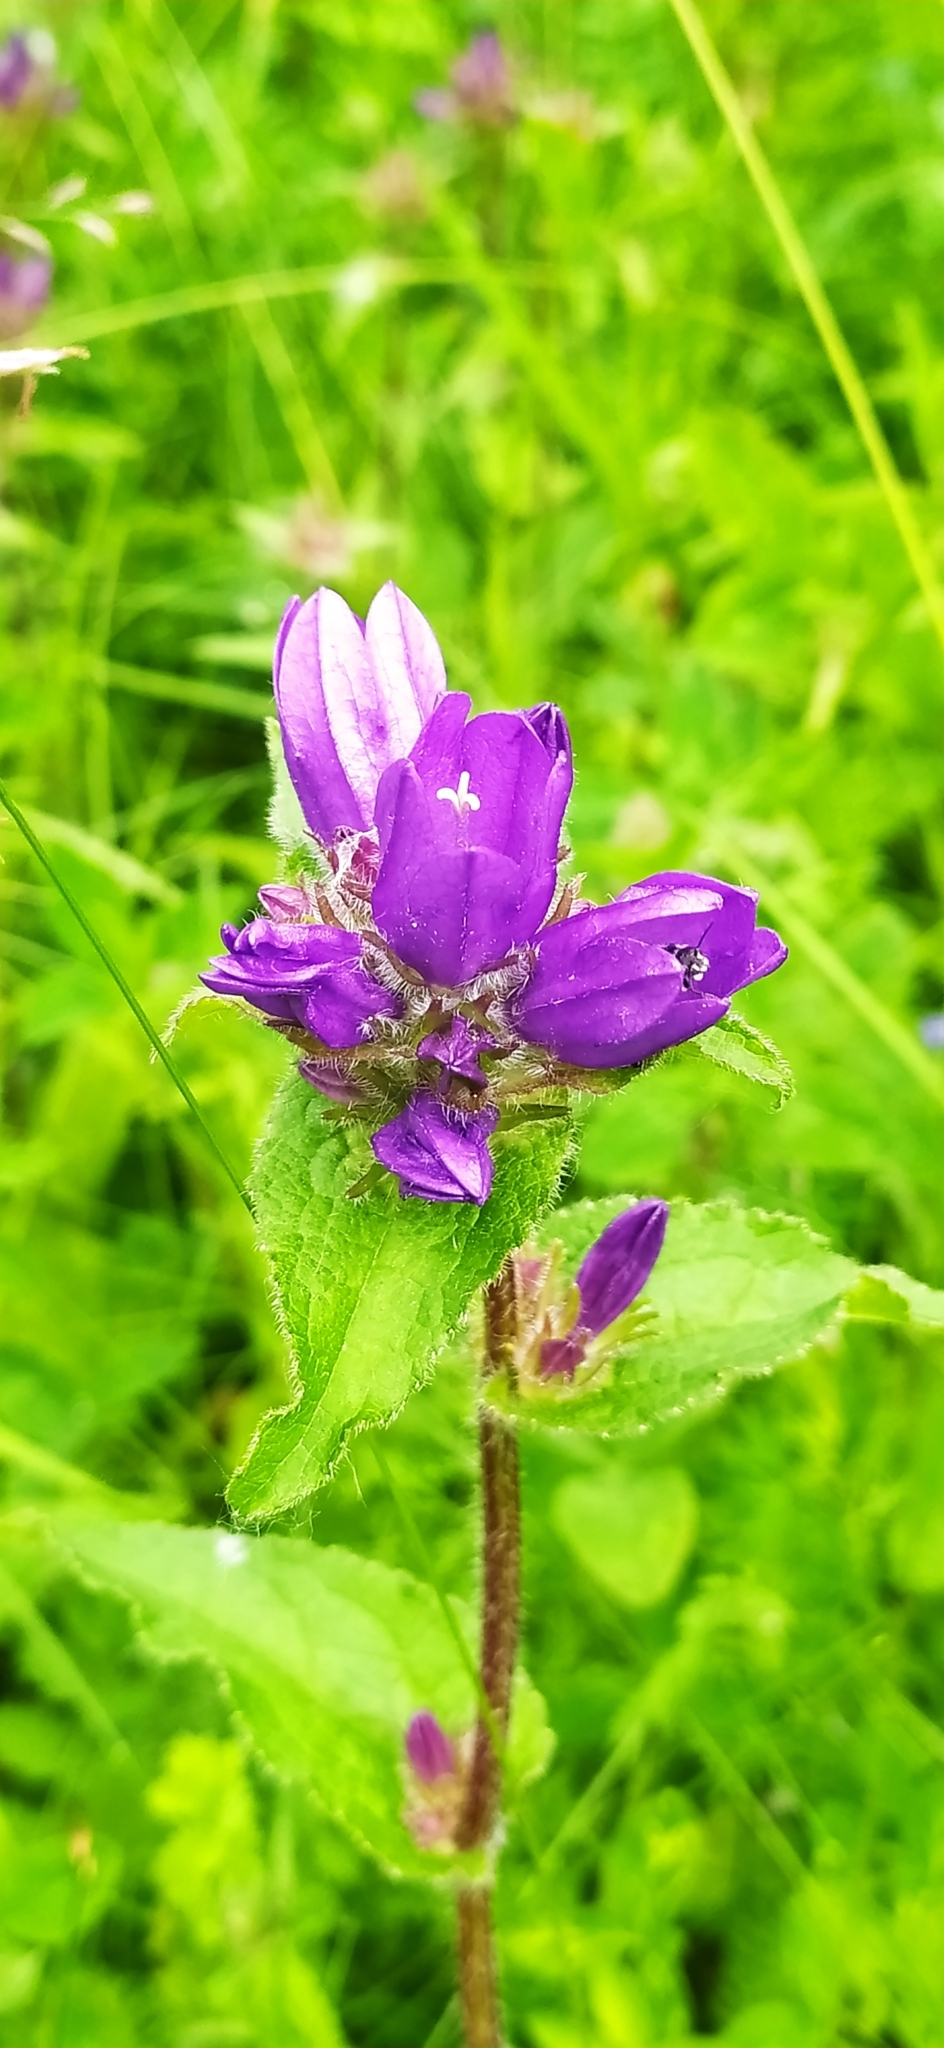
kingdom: Plantae
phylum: Tracheophyta
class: Magnoliopsida
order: Asterales
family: Campanulaceae
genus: Campanula
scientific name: Campanula glomerata
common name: Clustered bellflower
